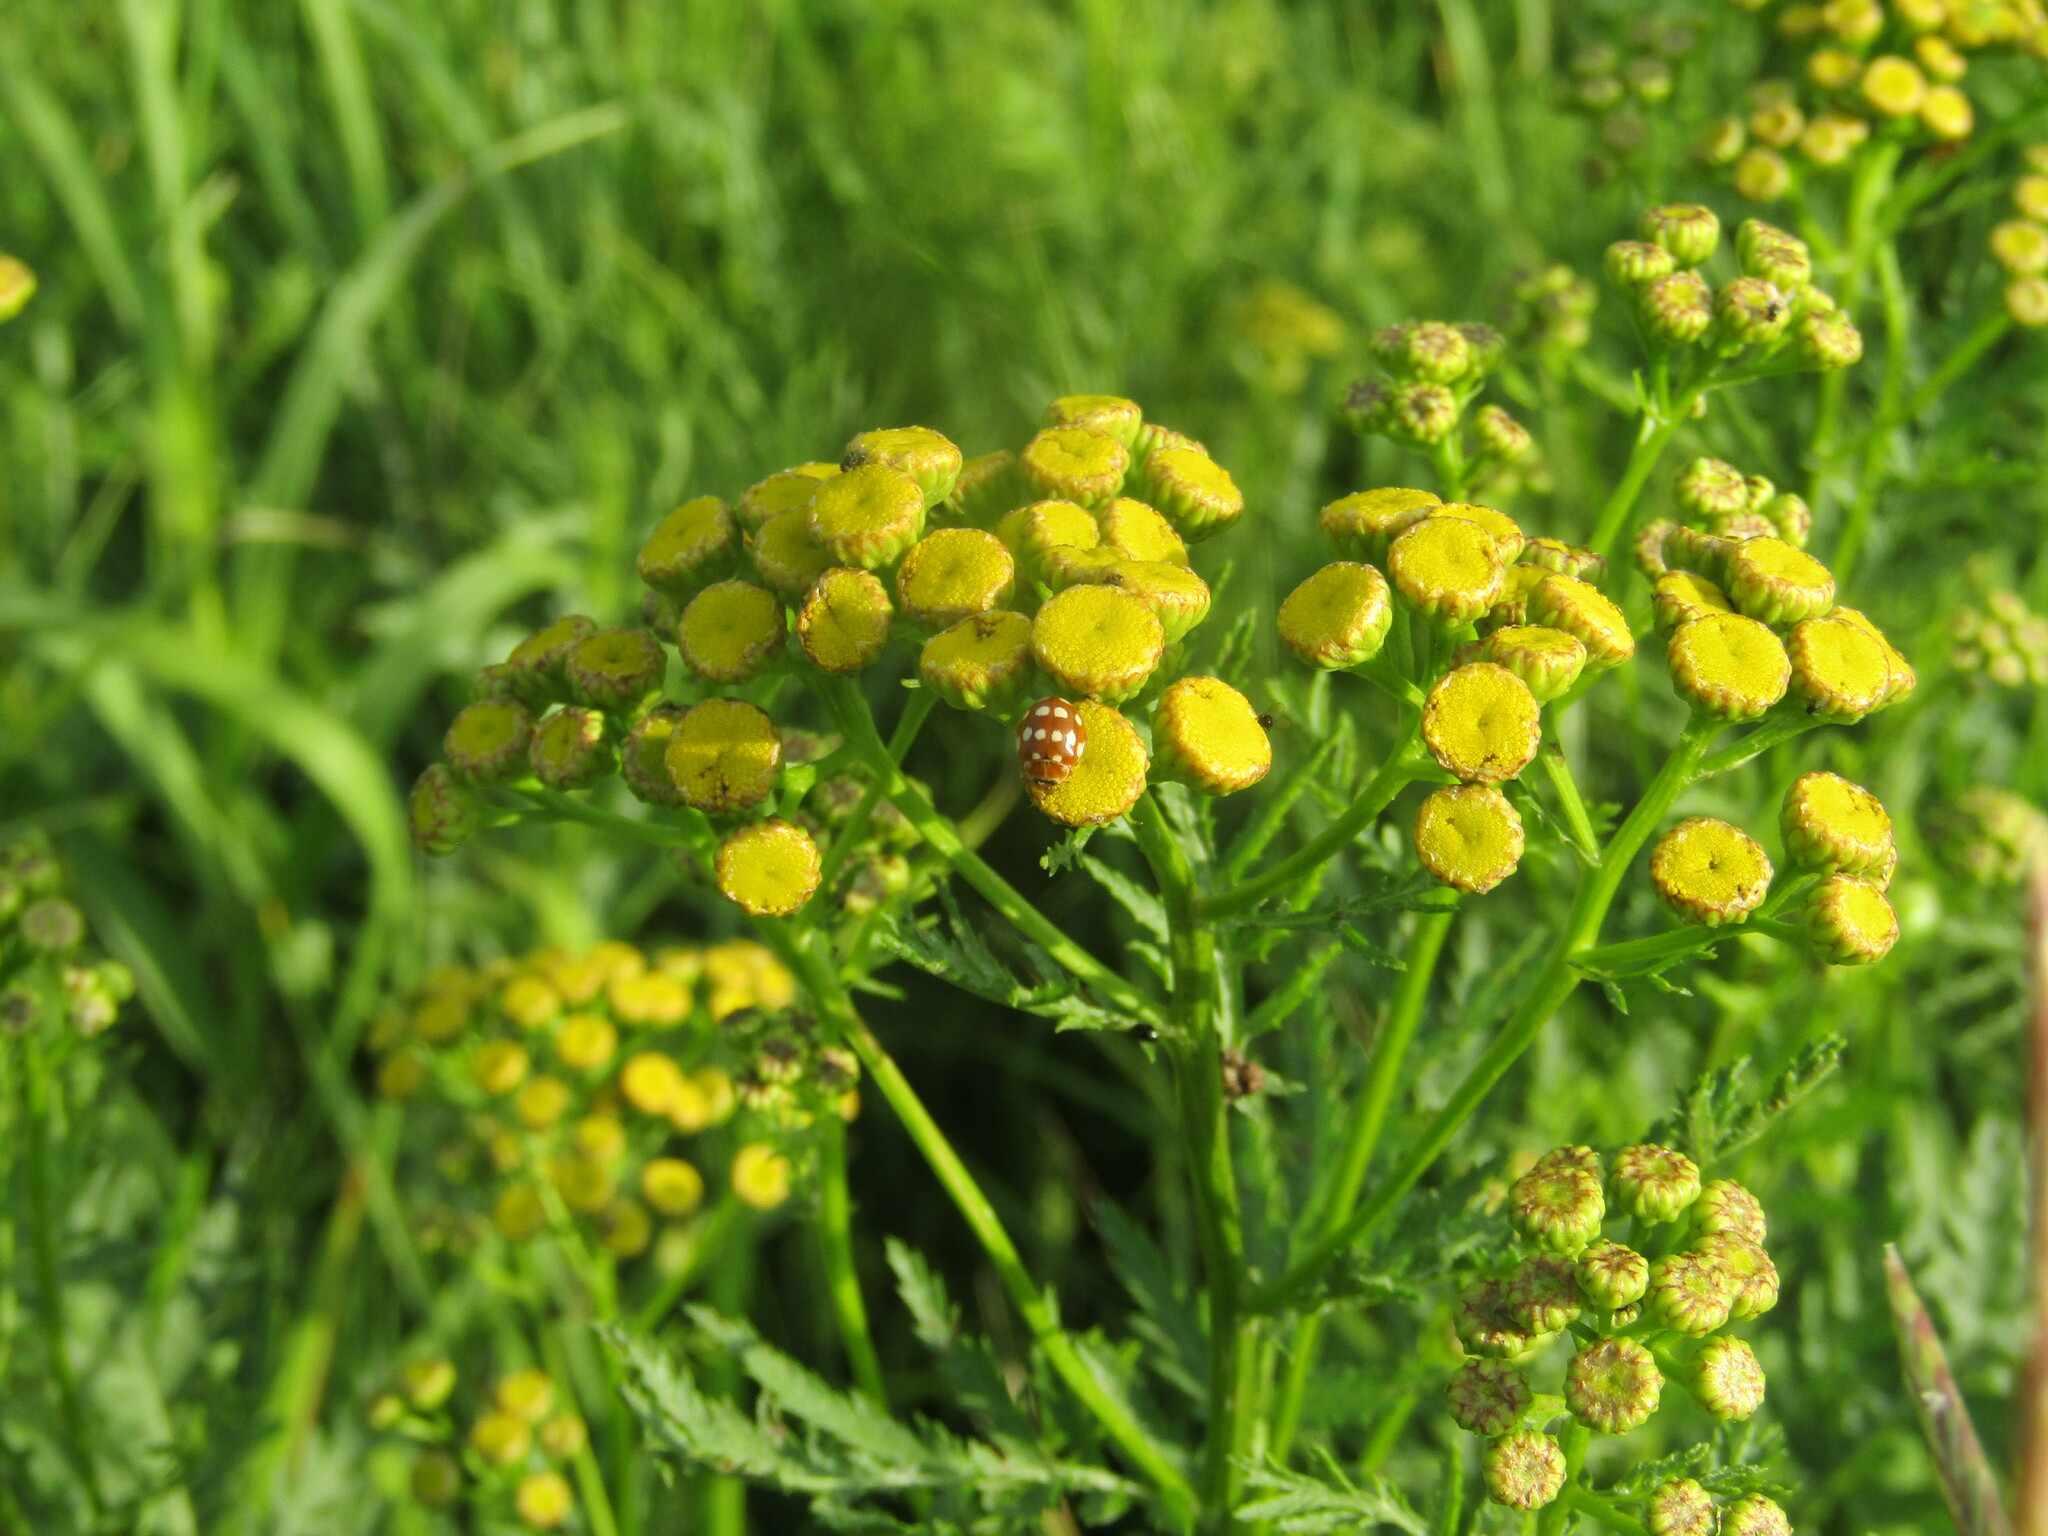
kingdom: Plantae
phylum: Tracheophyta
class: Magnoliopsida
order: Asterales
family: Asteraceae
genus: Tanacetum
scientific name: Tanacetum vulgare
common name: Common tansy
